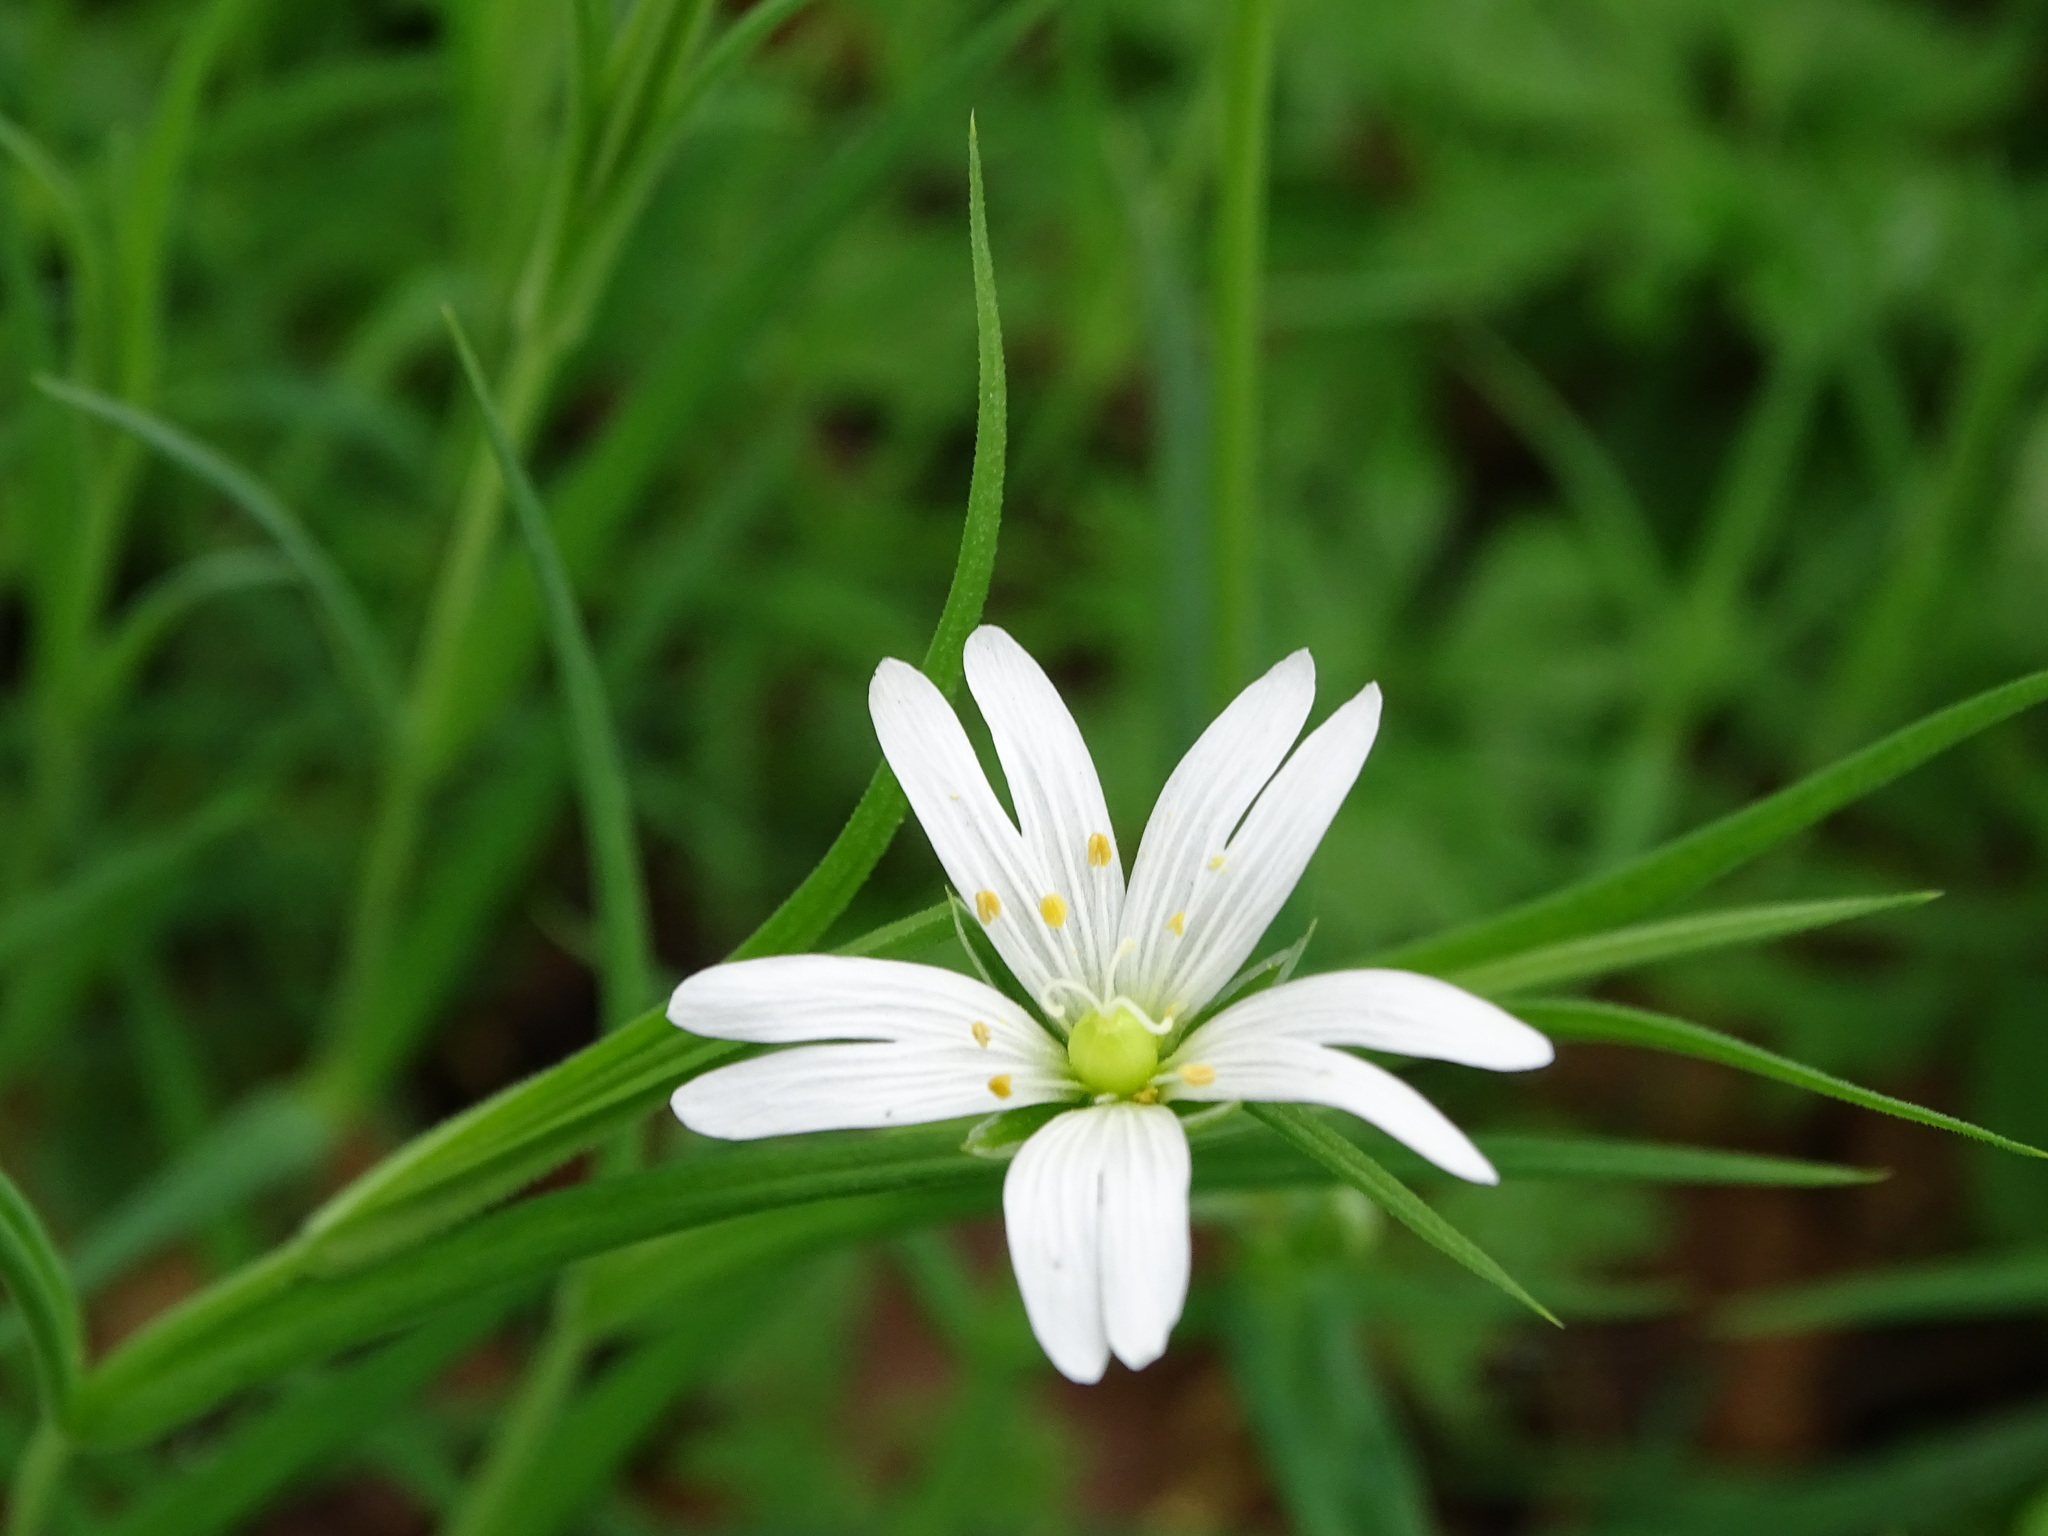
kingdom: Plantae
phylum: Tracheophyta
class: Magnoliopsida
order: Caryophyllales
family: Caryophyllaceae
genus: Rabelera
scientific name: Rabelera holostea
